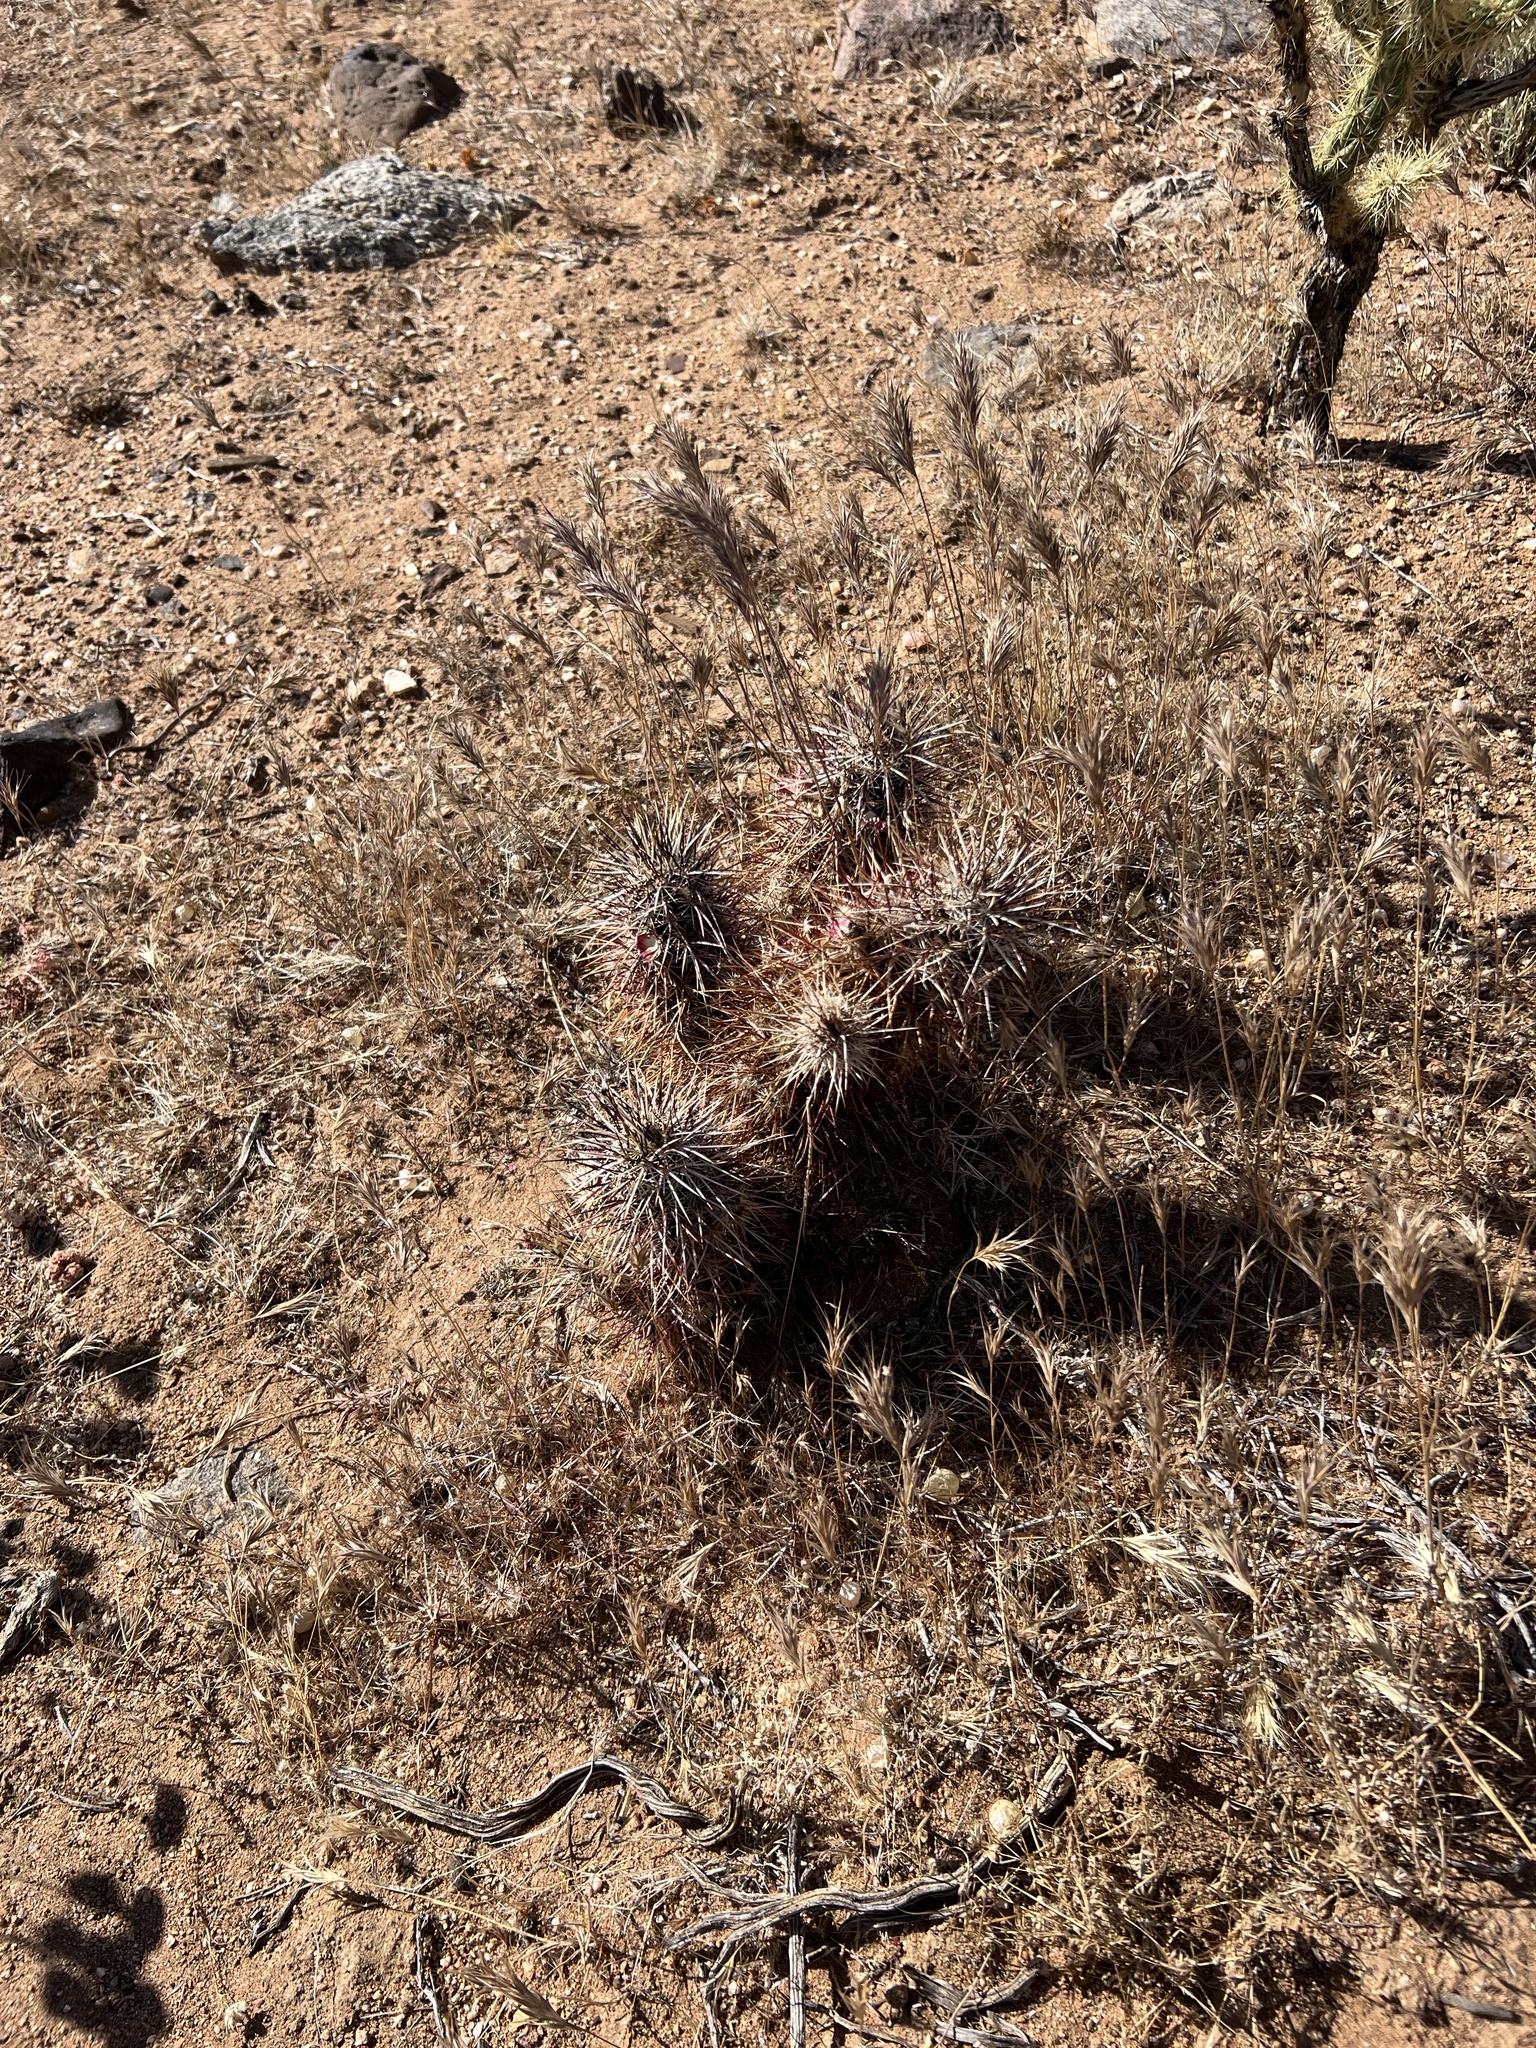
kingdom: Plantae
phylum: Tracheophyta
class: Magnoliopsida
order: Caryophyllales
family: Cactaceae
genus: Echinocereus
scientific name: Echinocereus engelmannii
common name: Engelmann's hedgehog cactus
